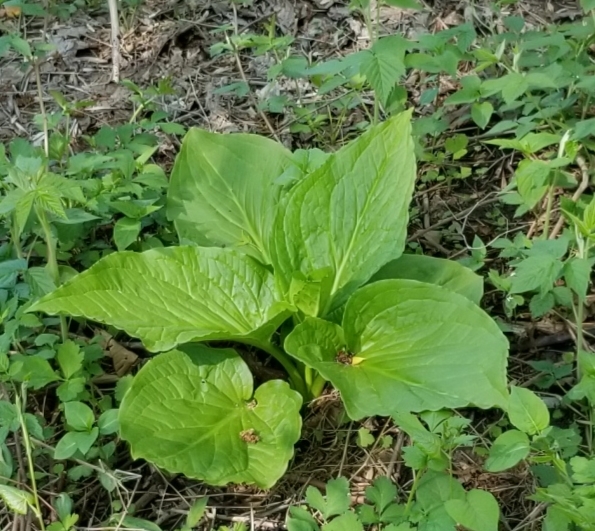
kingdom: Plantae
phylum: Tracheophyta
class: Liliopsida
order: Alismatales
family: Araceae
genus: Symplocarpus
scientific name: Symplocarpus foetidus
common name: Eastern skunk cabbage
